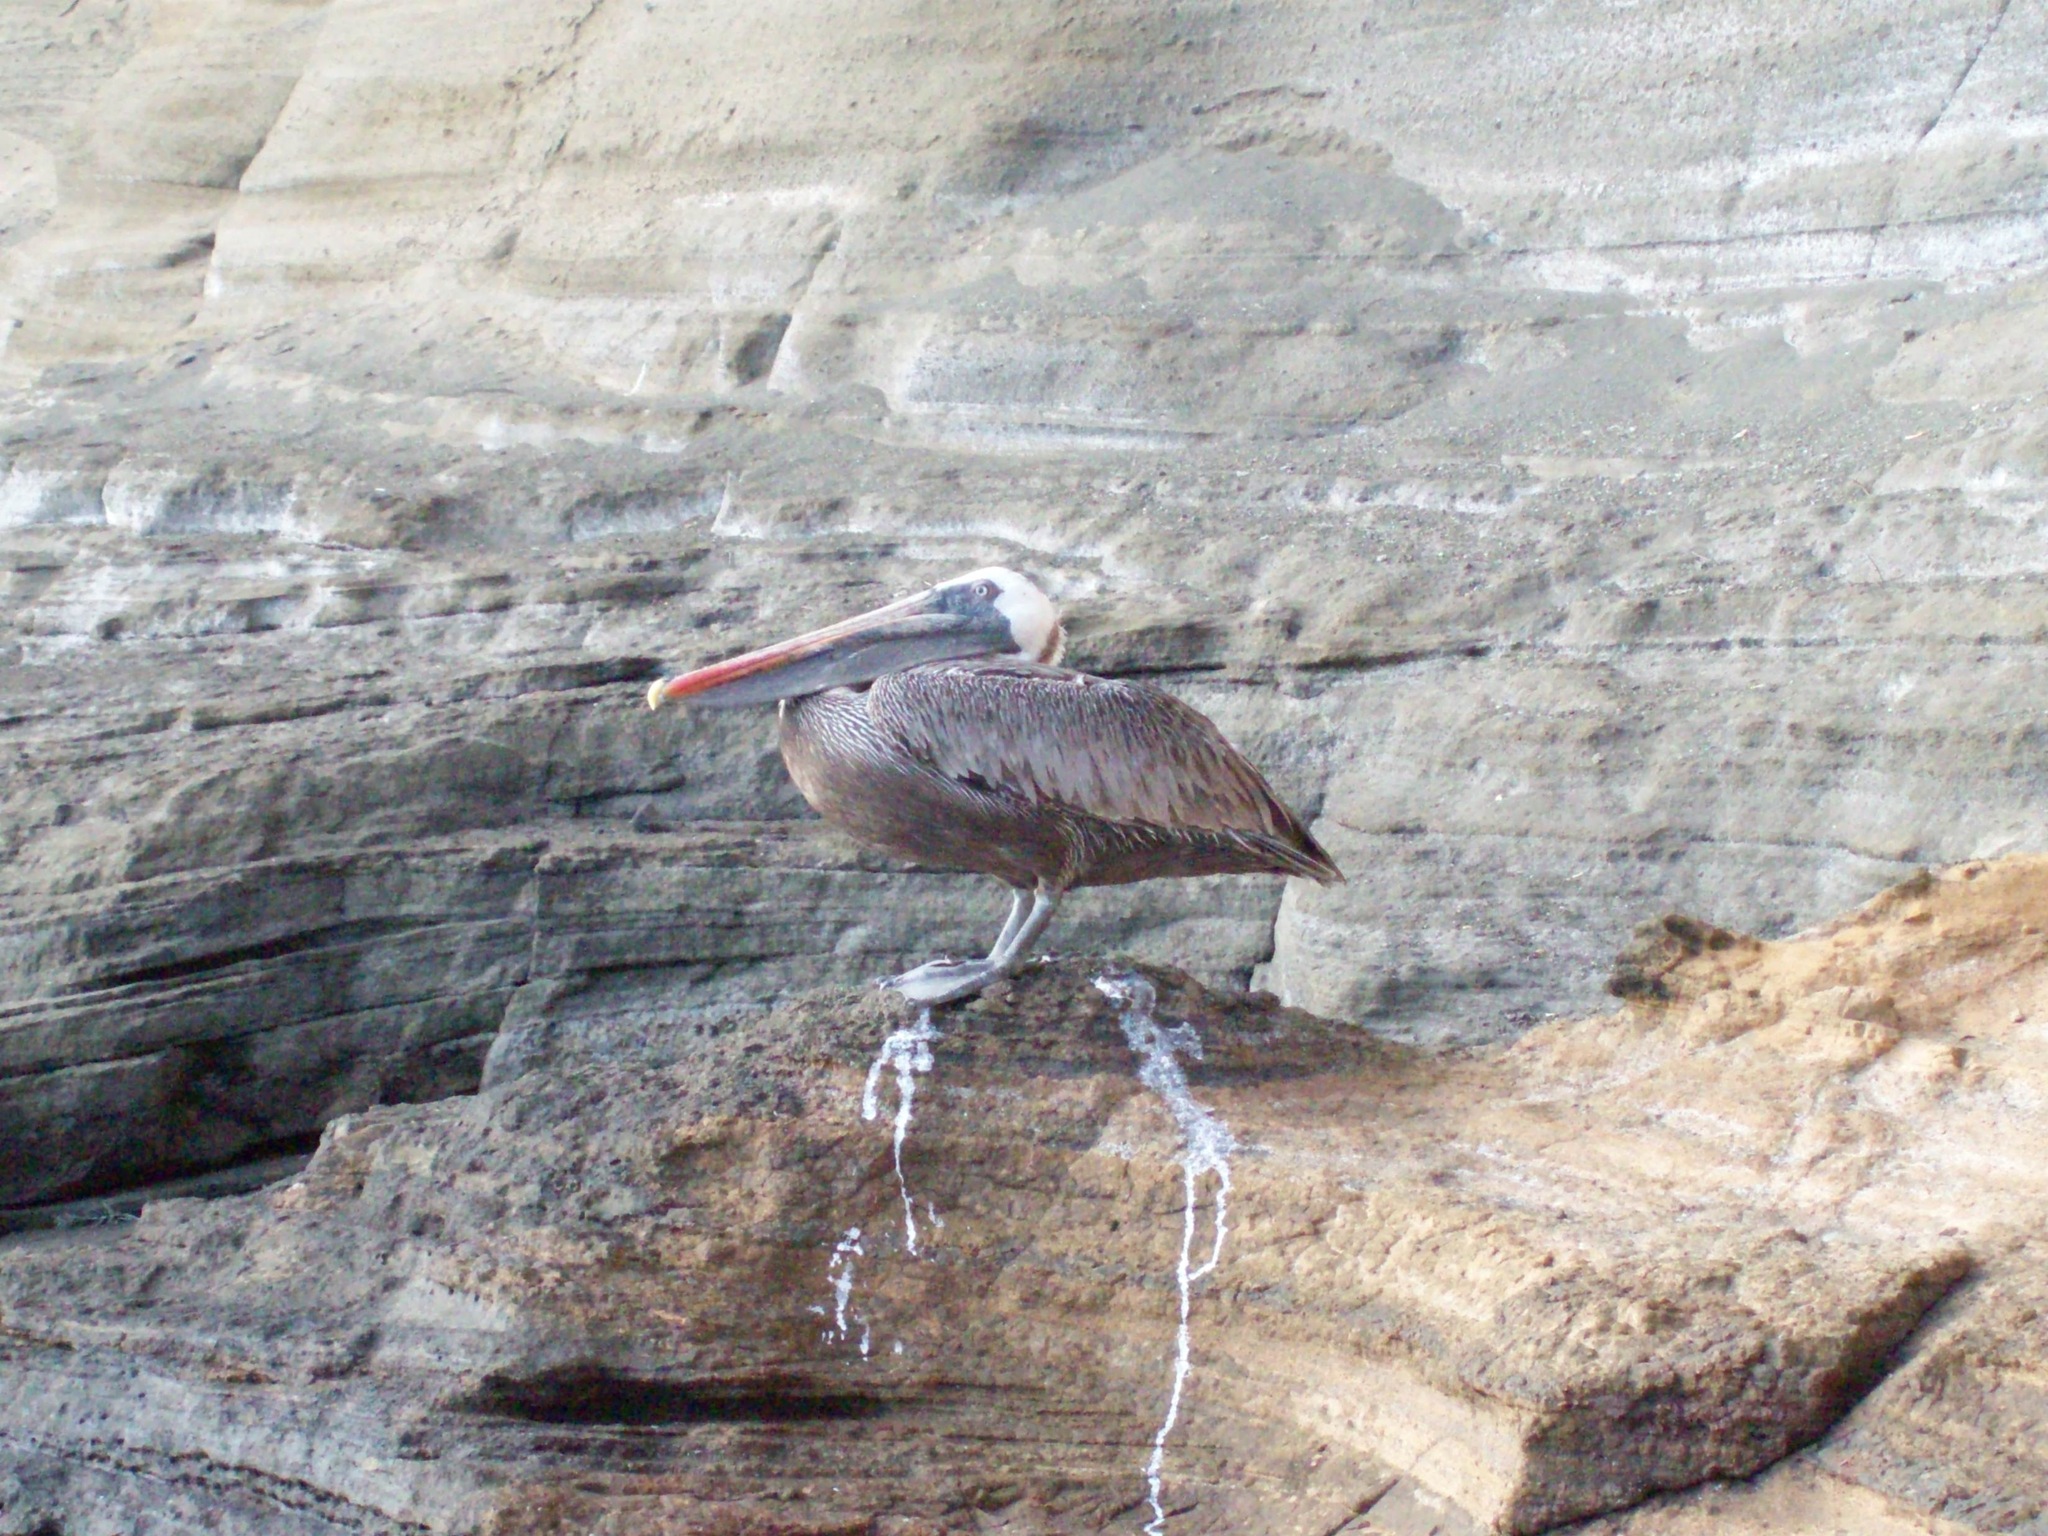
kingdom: Animalia
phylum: Chordata
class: Aves
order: Pelecaniformes
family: Pelecanidae
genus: Pelecanus
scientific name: Pelecanus occidentalis
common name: Brown pelican
